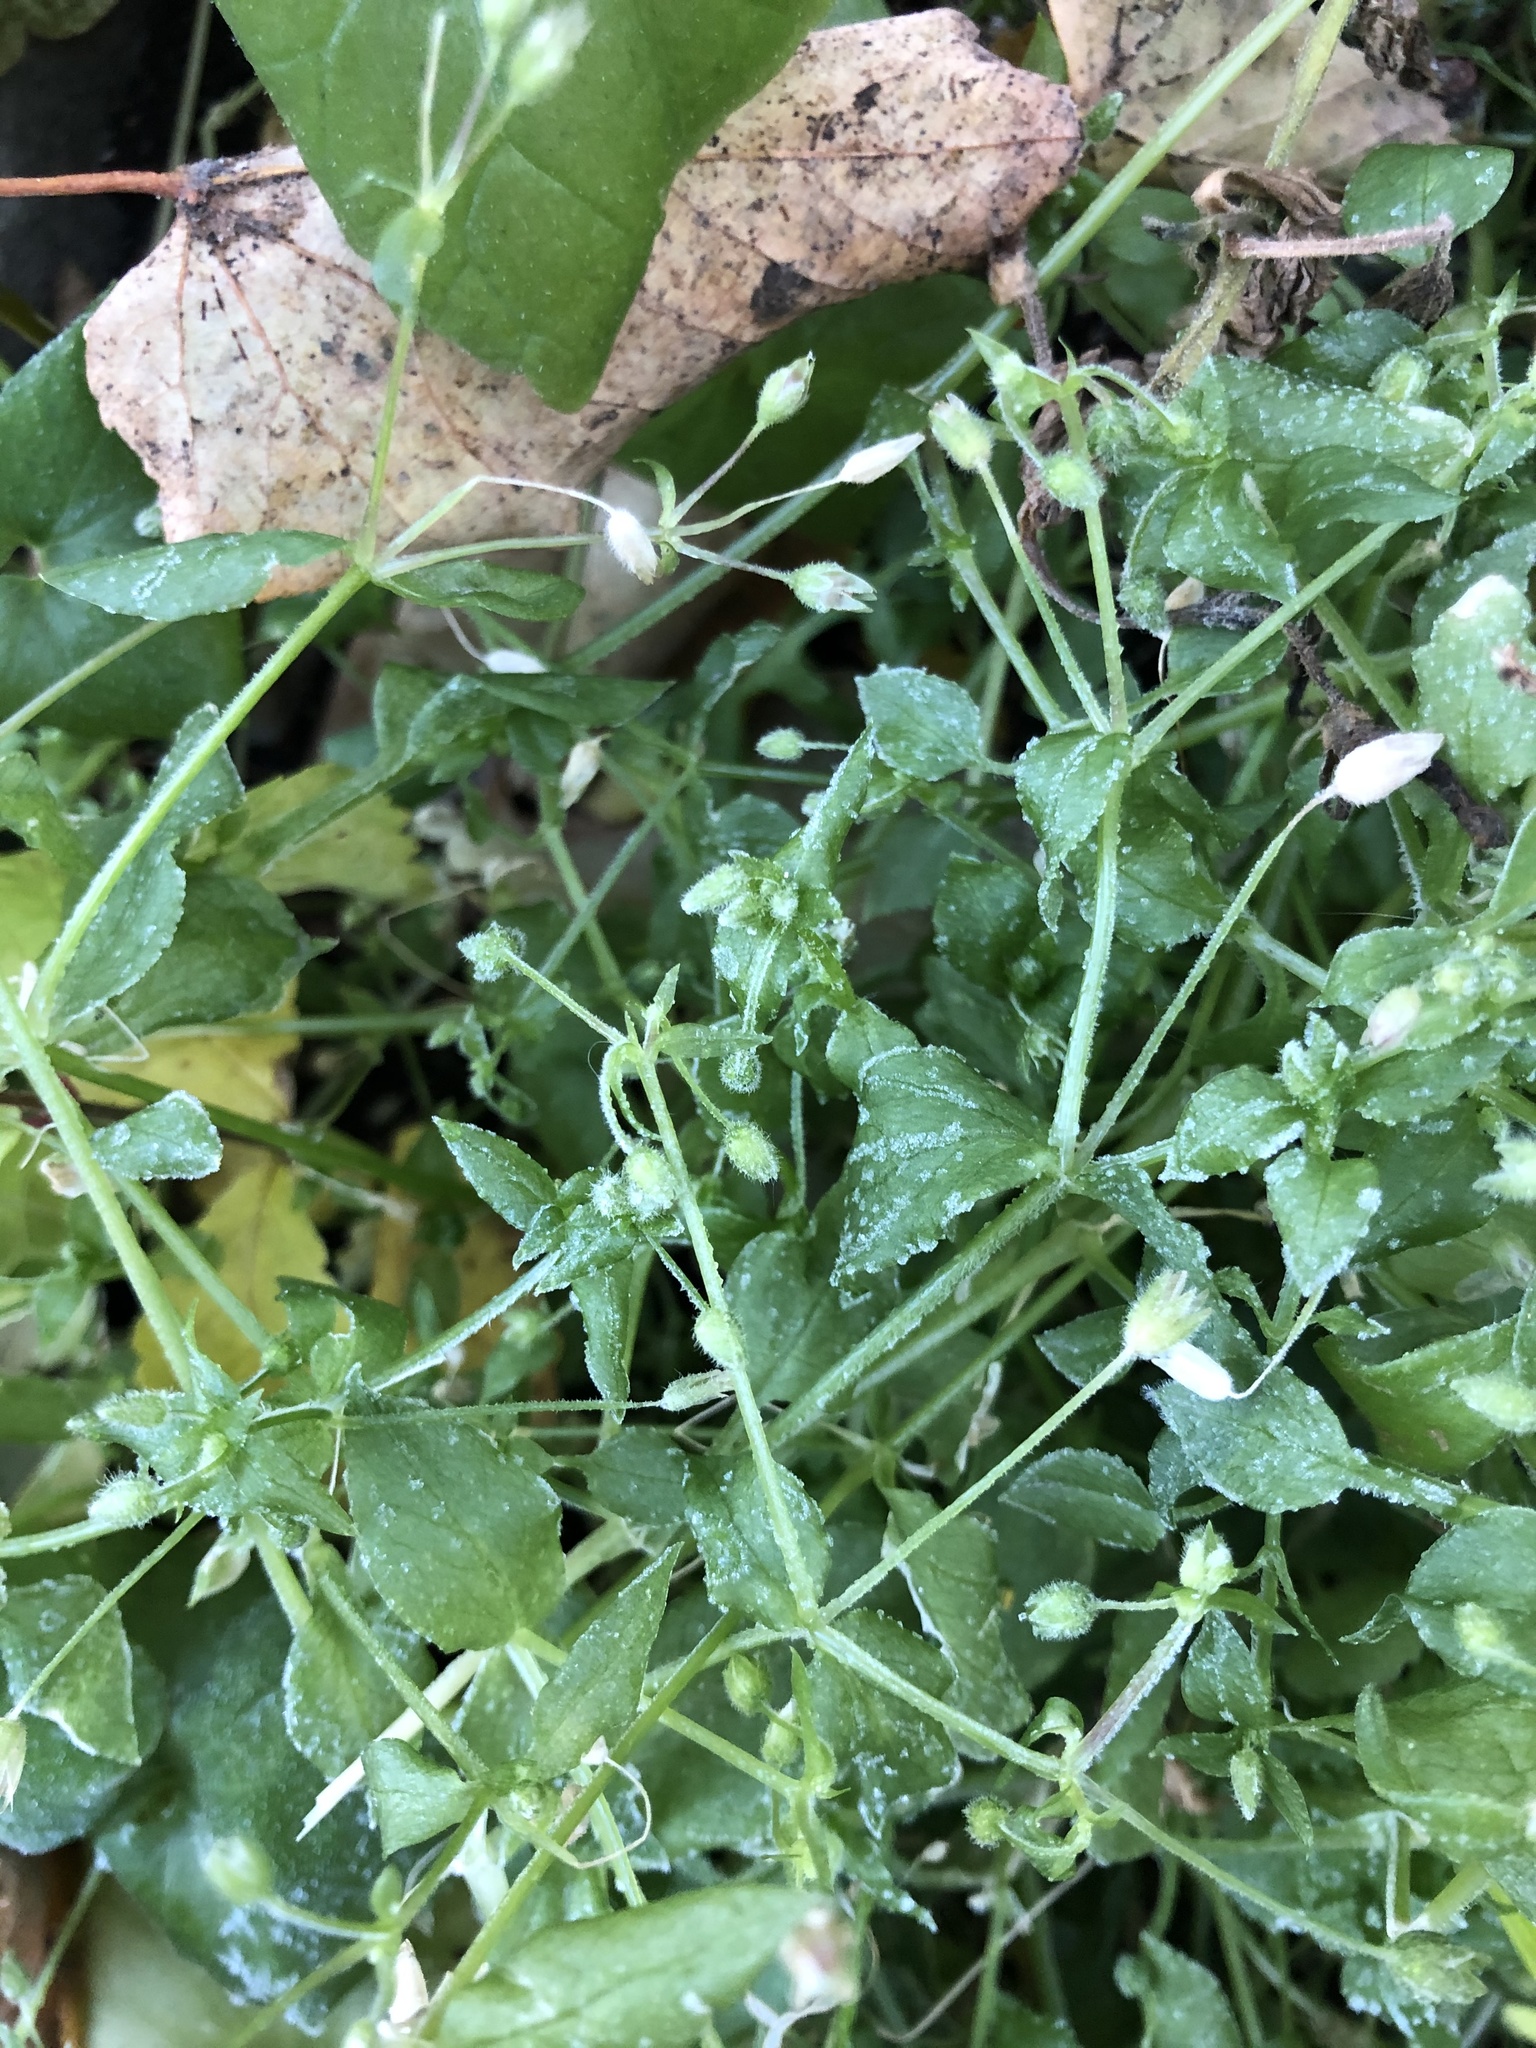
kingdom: Plantae
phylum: Tracheophyta
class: Magnoliopsida
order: Caryophyllales
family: Caryophyllaceae
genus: Stellaria
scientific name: Stellaria media
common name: Common chickweed
